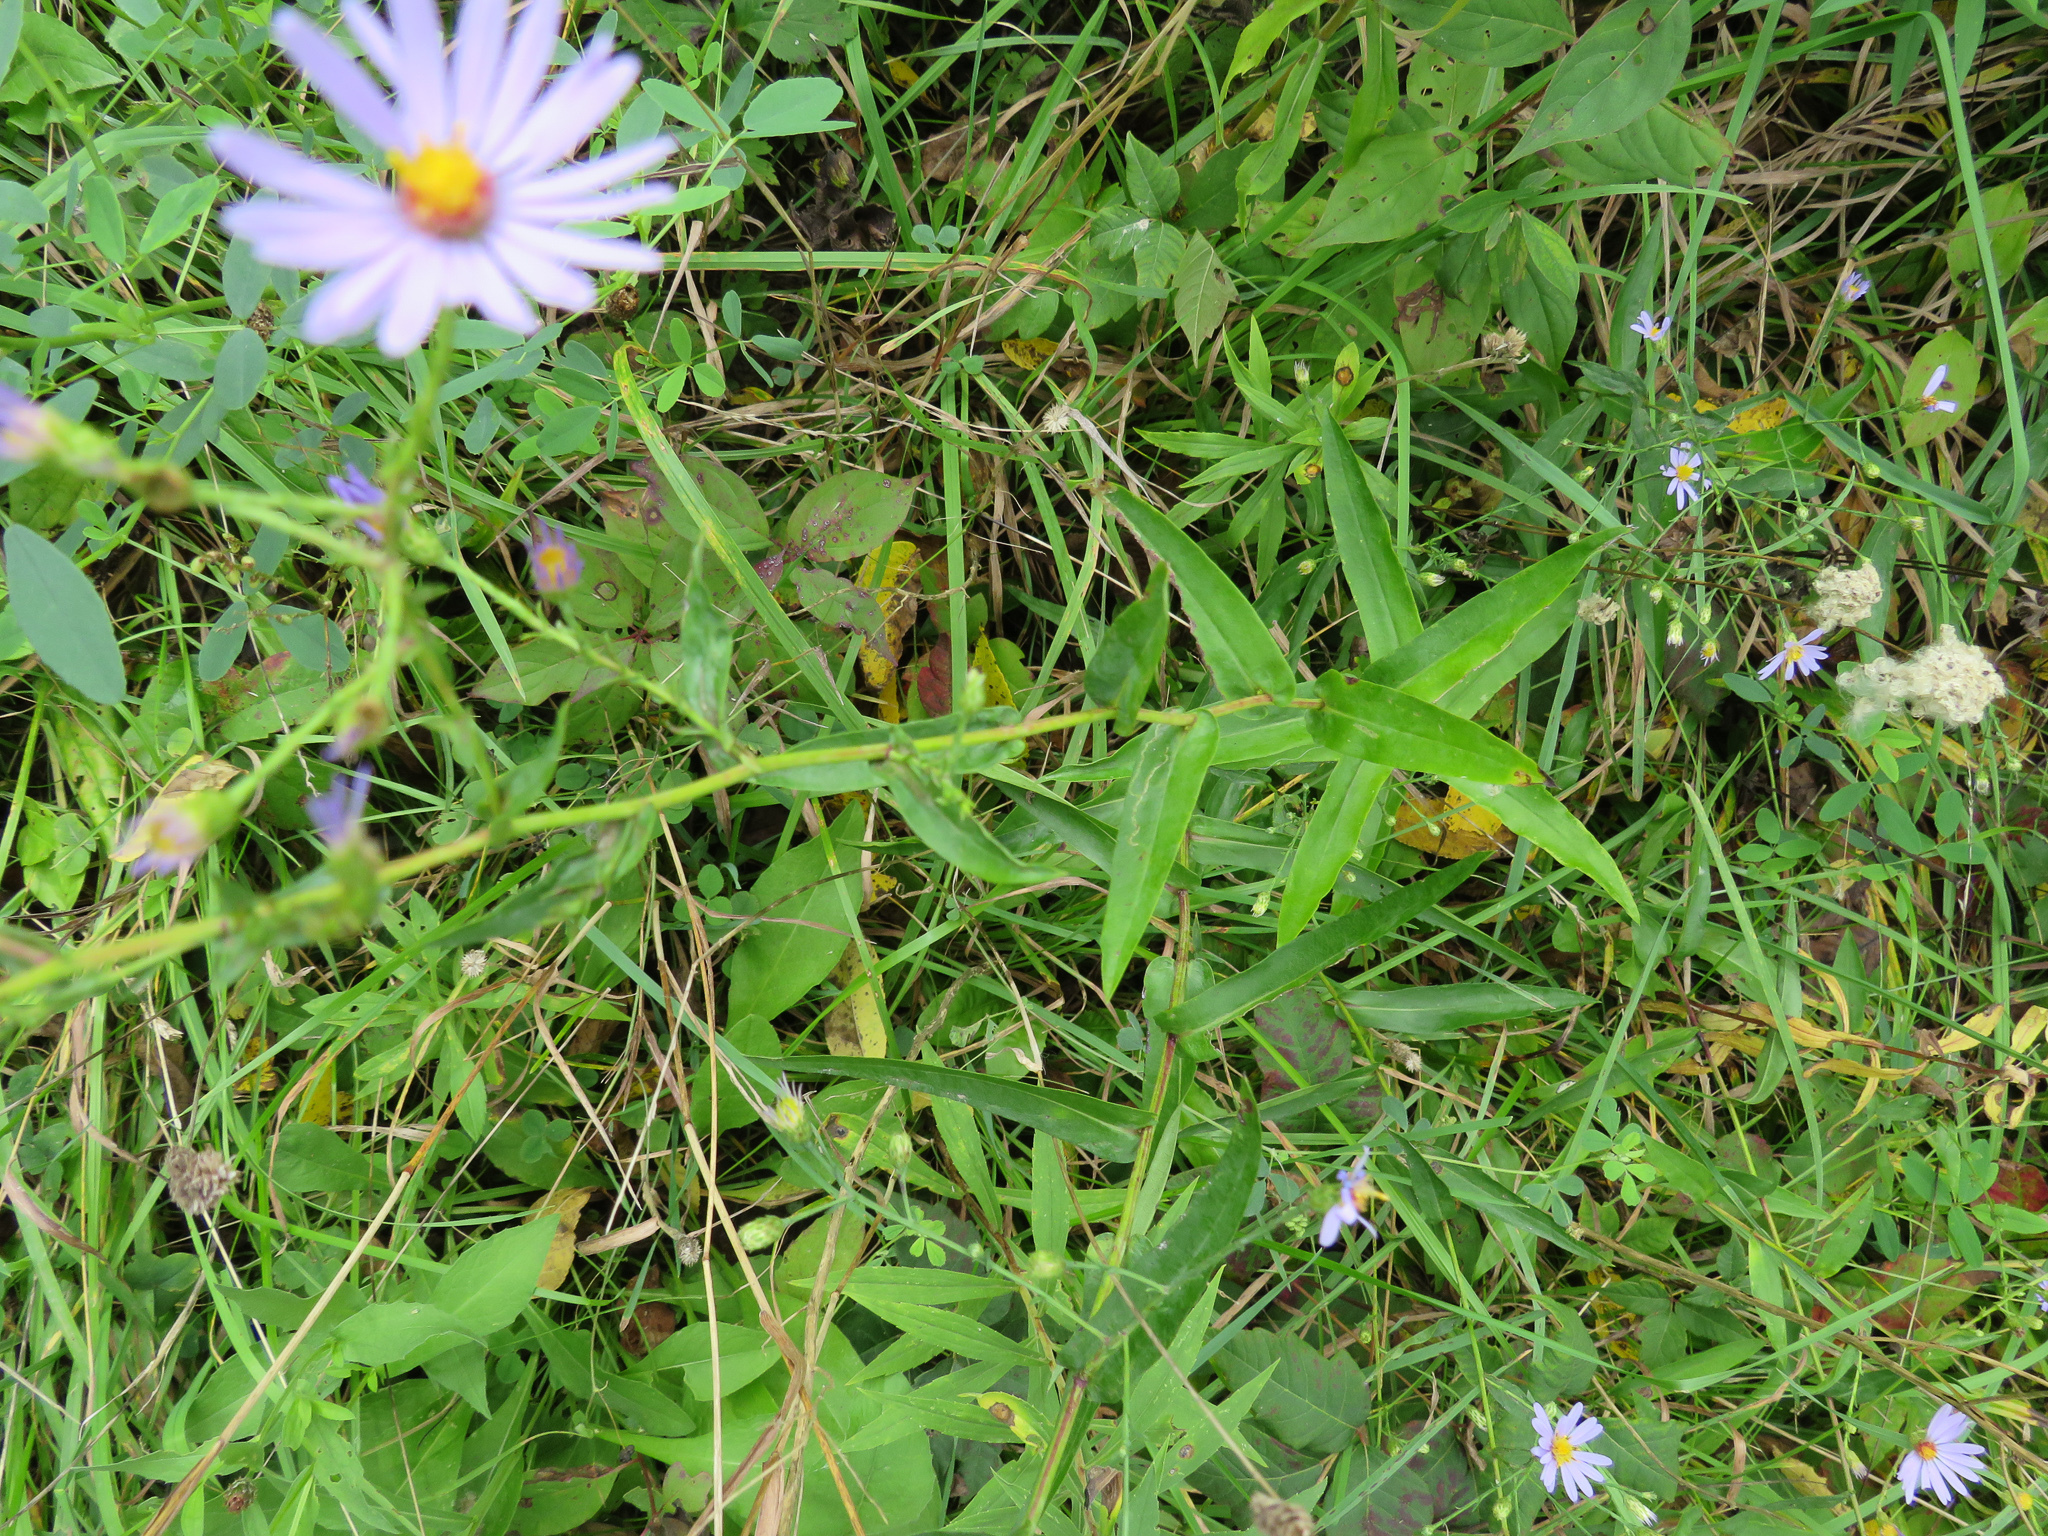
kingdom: Plantae
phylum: Tracheophyta
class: Magnoliopsida
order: Asterales
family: Asteraceae
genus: Symphyotrichum
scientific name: Symphyotrichum laeve
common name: Glaucous aster
